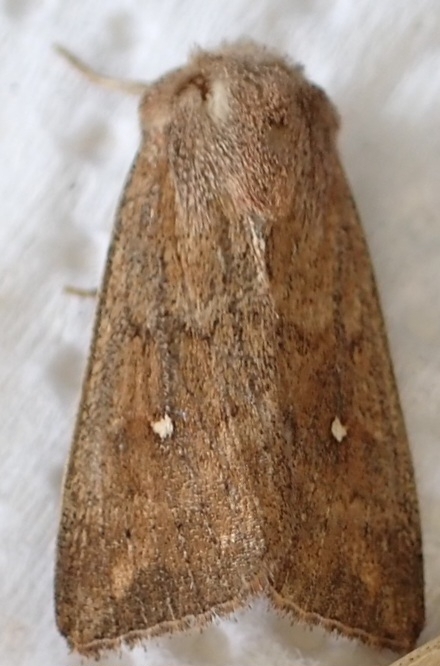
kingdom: Animalia
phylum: Arthropoda
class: Insecta
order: Lepidoptera
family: Noctuidae
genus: Mythimna
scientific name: Mythimna albipuncta
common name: White-point
